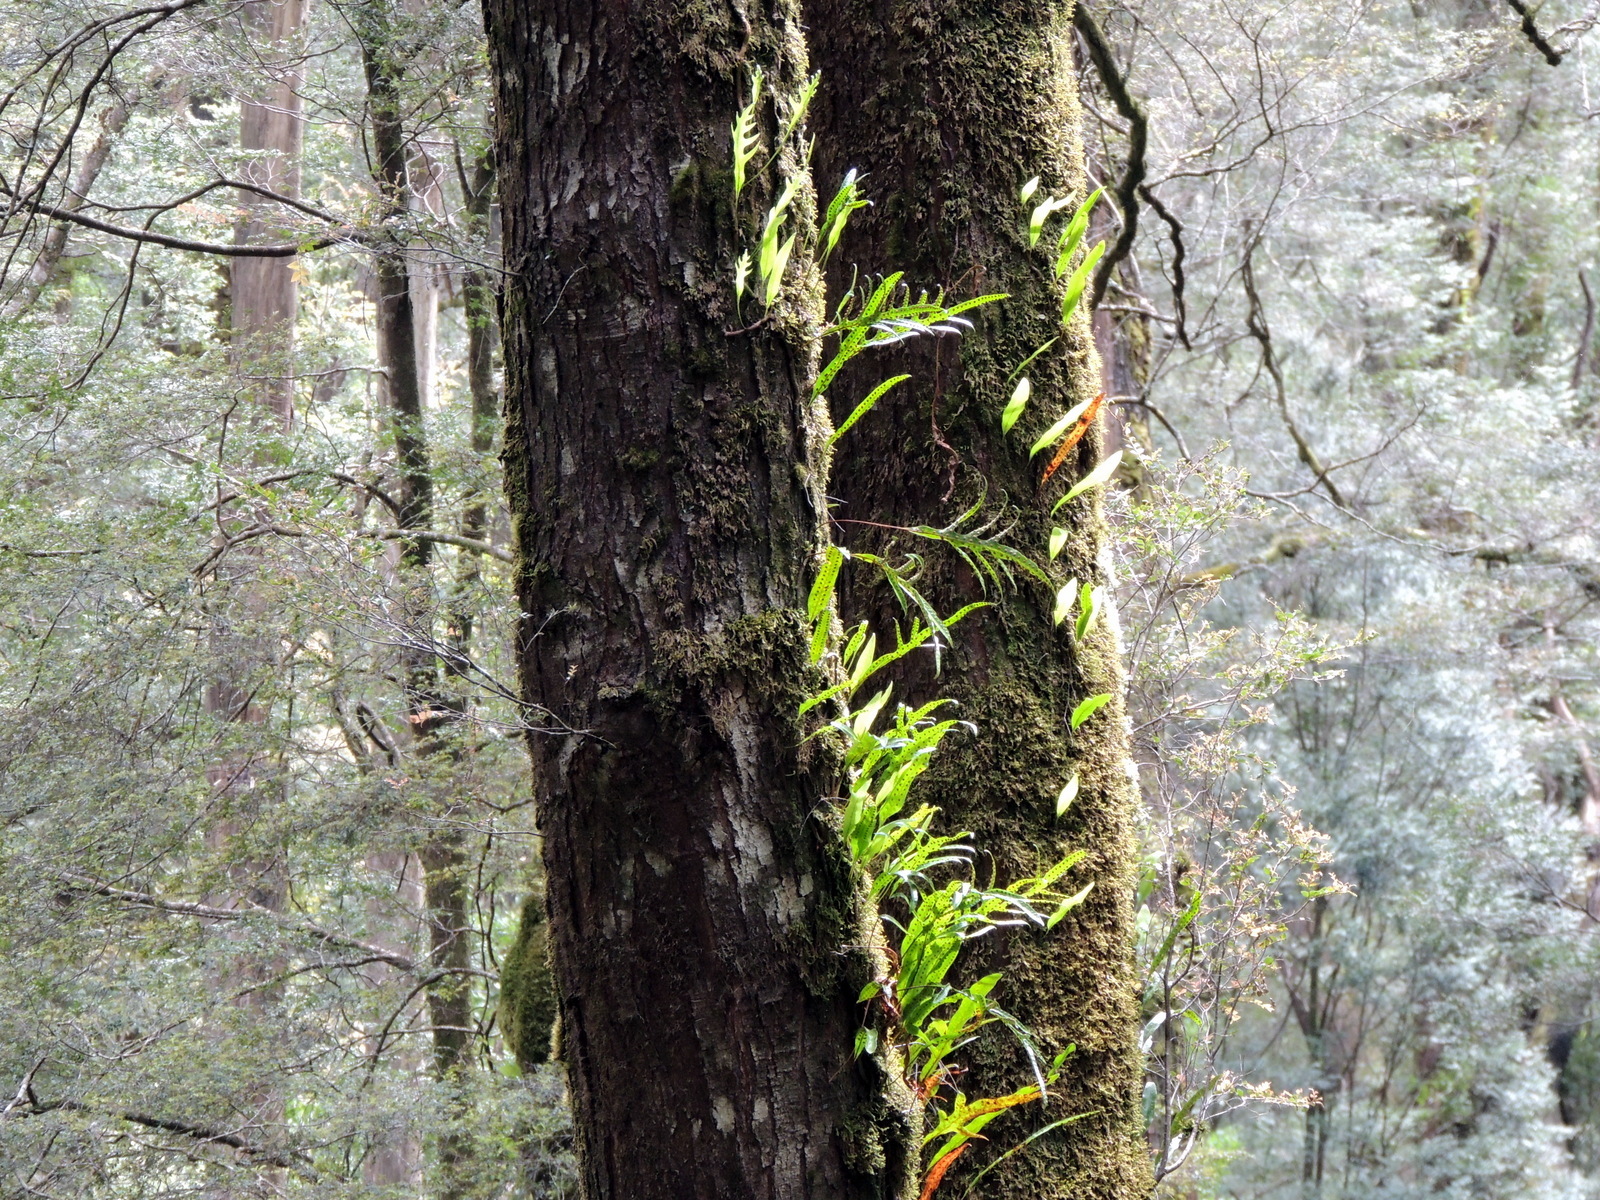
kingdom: Plantae
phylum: Tracheophyta
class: Polypodiopsida
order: Polypodiales
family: Polypodiaceae
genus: Lecanopteris
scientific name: Lecanopteris pustulata
